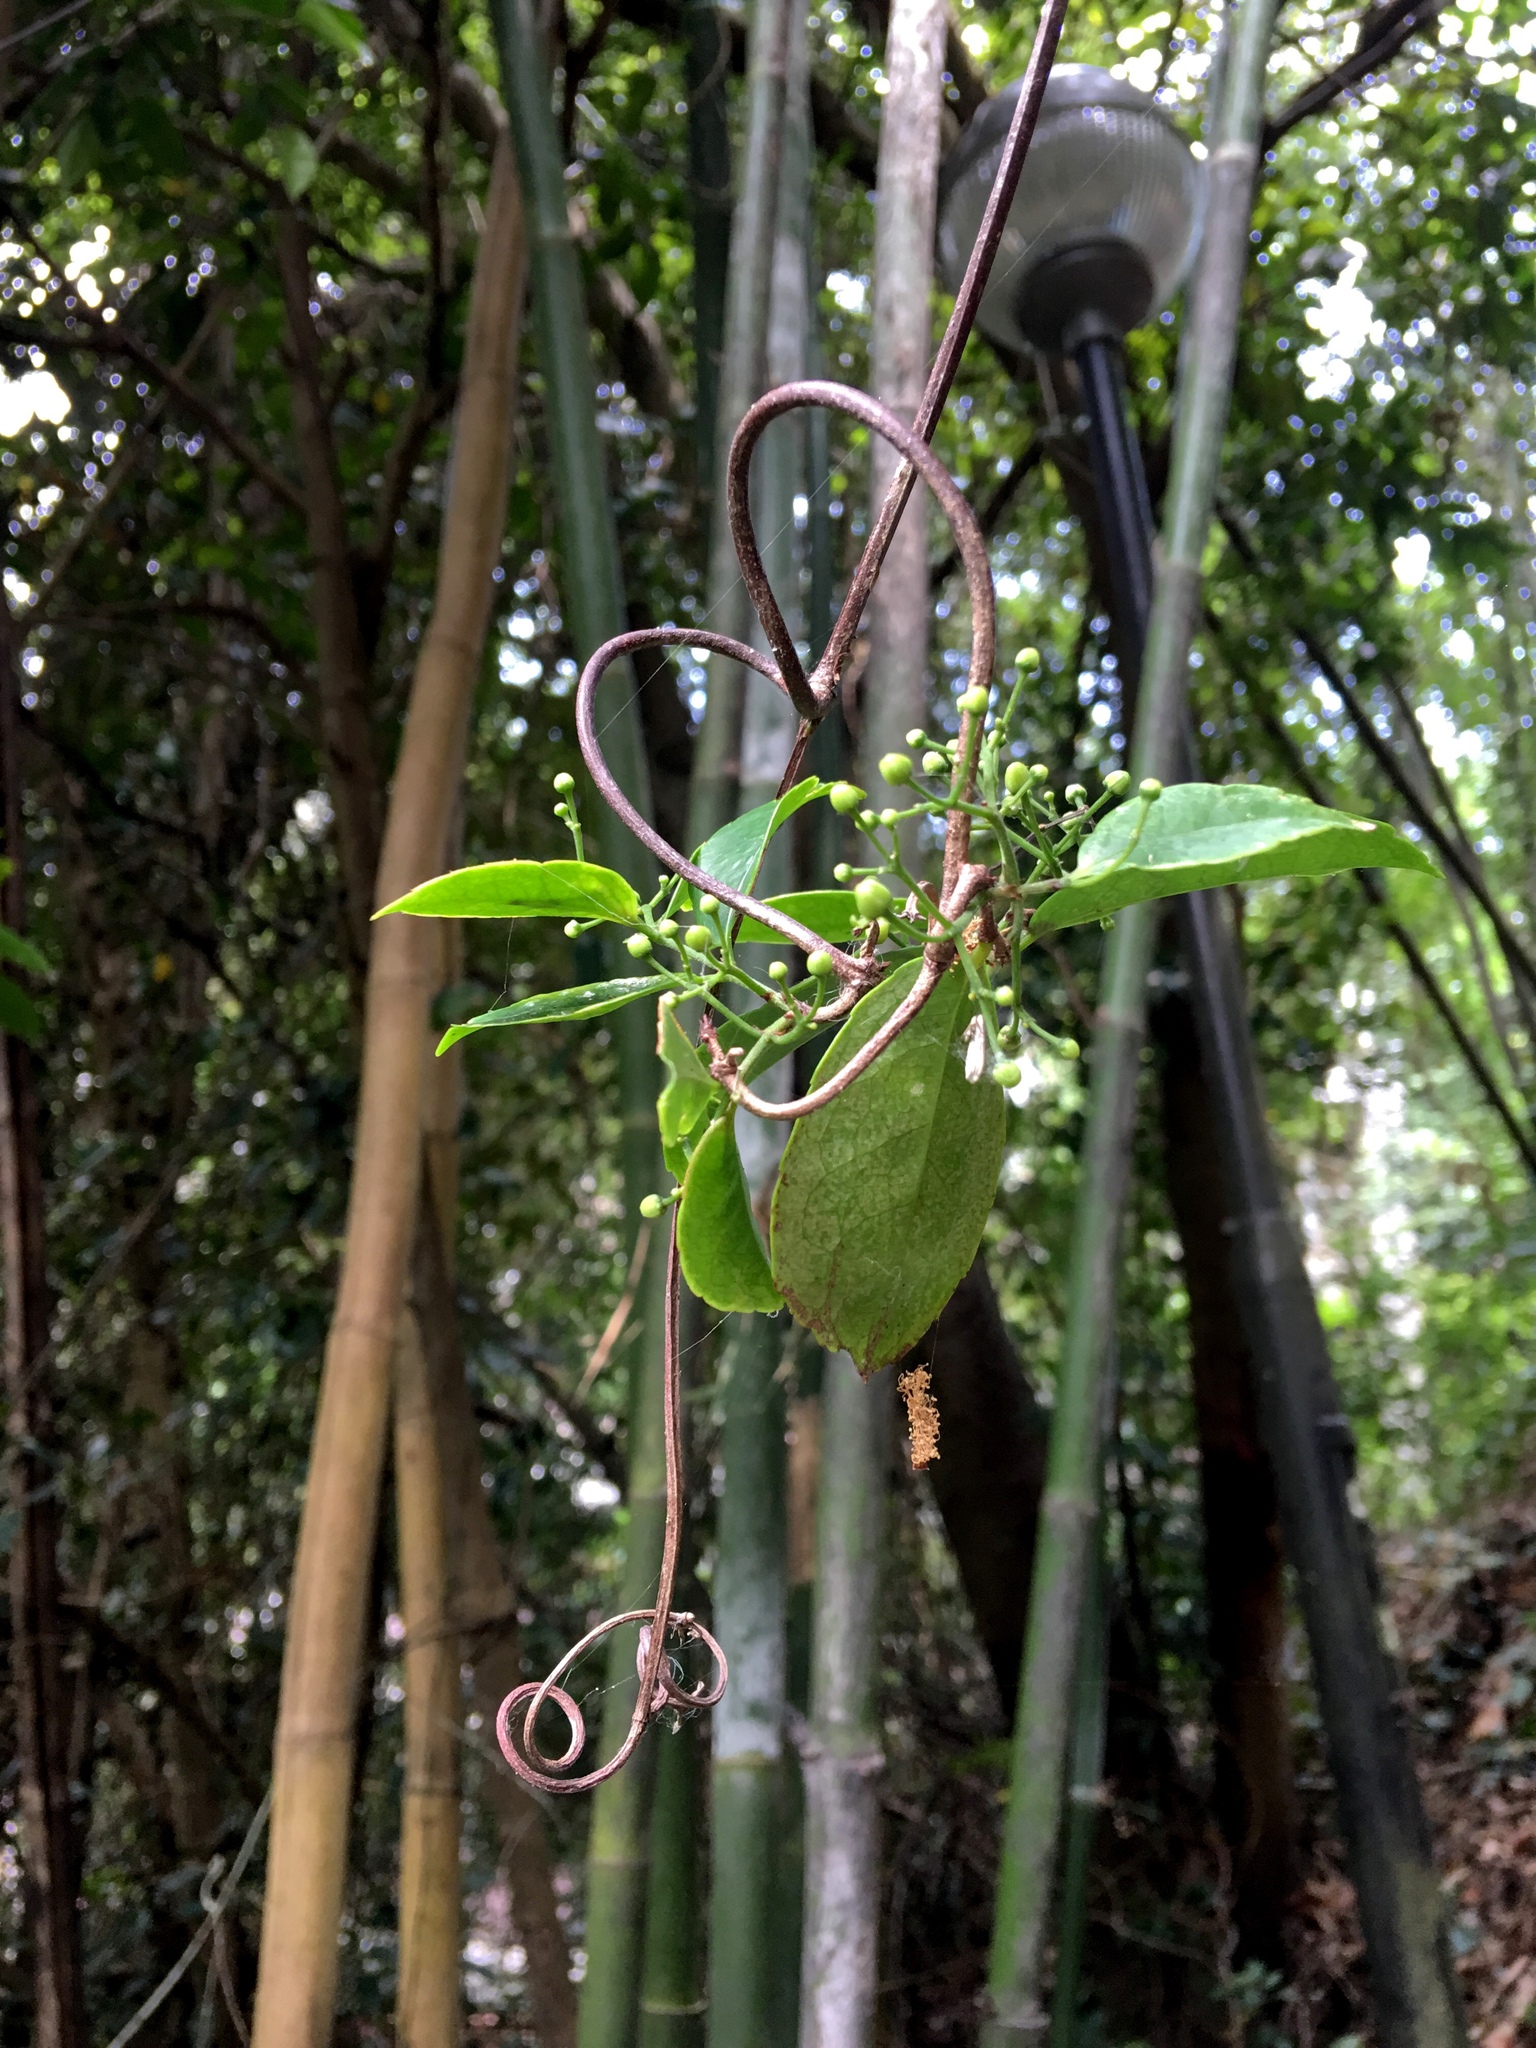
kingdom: Plantae
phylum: Tracheophyta
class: Magnoliopsida
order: Celastrales
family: Celastraceae
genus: Loeseneriella
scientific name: Loeseneriella concinna
